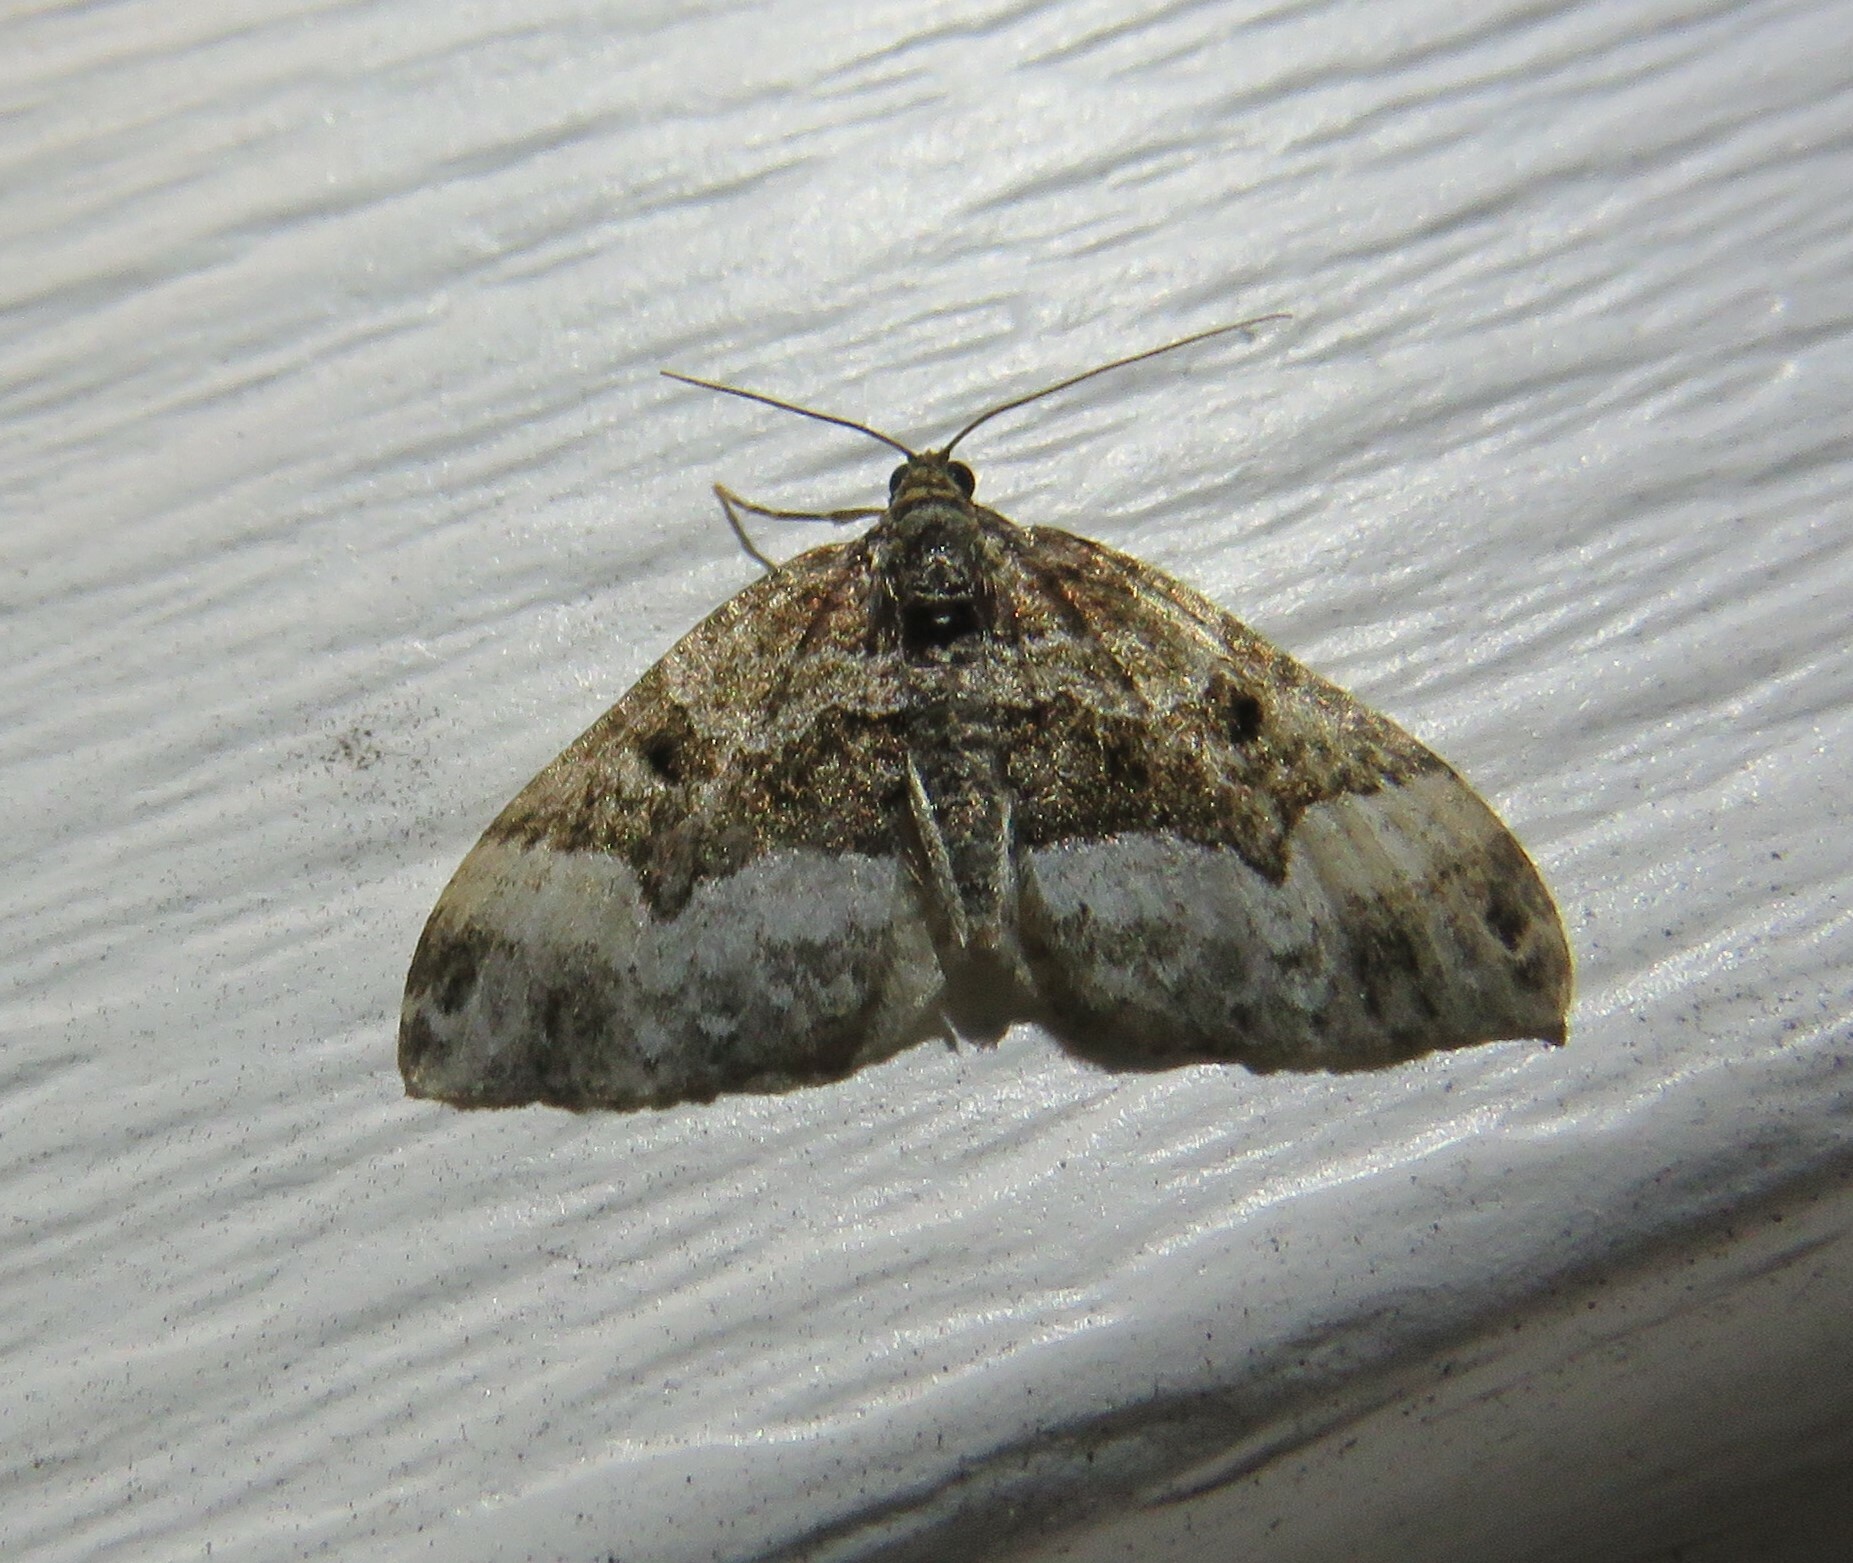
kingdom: Animalia
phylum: Arthropoda
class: Insecta
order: Lepidoptera
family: Geometridae
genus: Euphyia
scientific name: Euphyia intermediata
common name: Sharp-angled carpet
